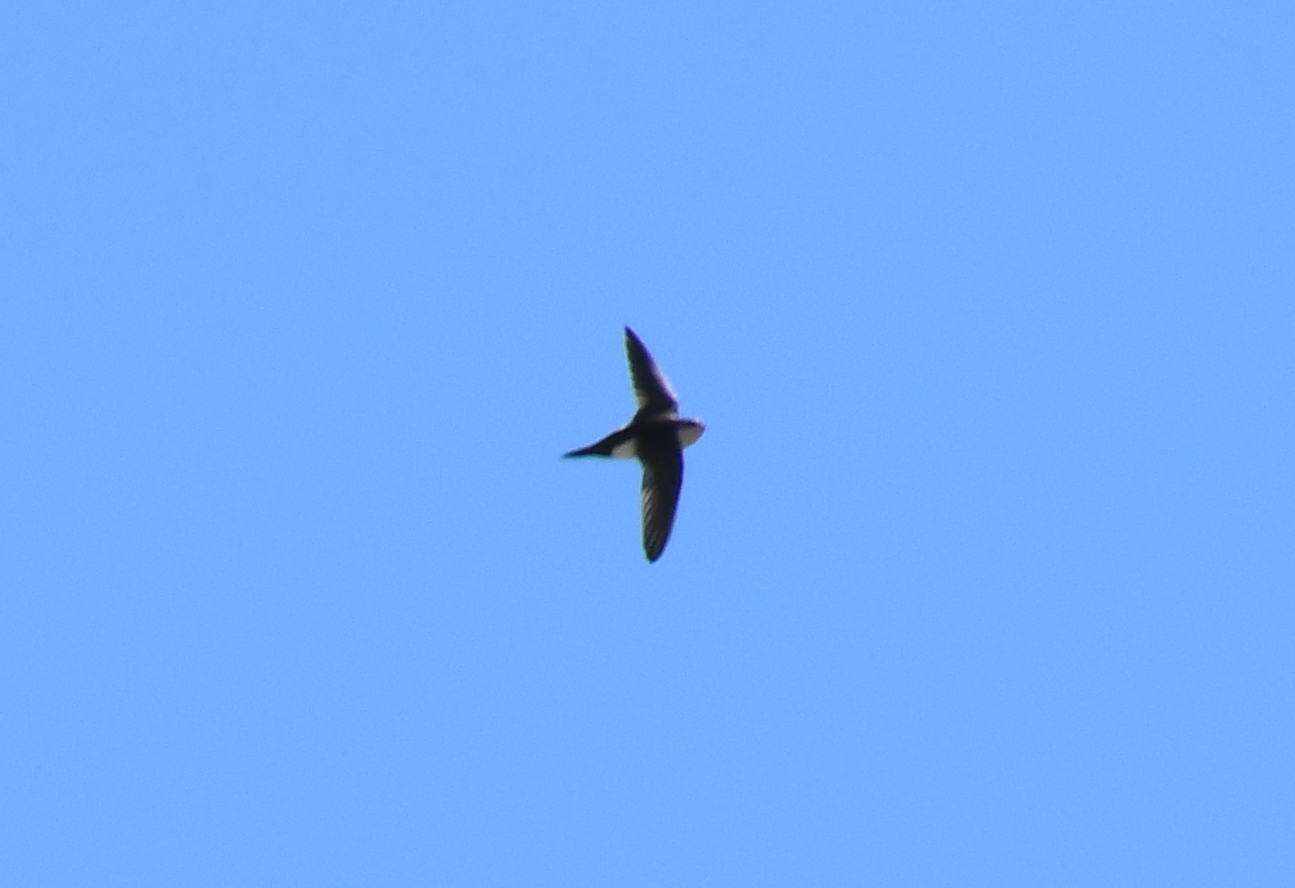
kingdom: Animalia
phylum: Chordata
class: Aves
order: Apodiformes
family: Apodidae
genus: Aeronautes
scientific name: Aeronautes saxatalis
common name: White-throated swift
